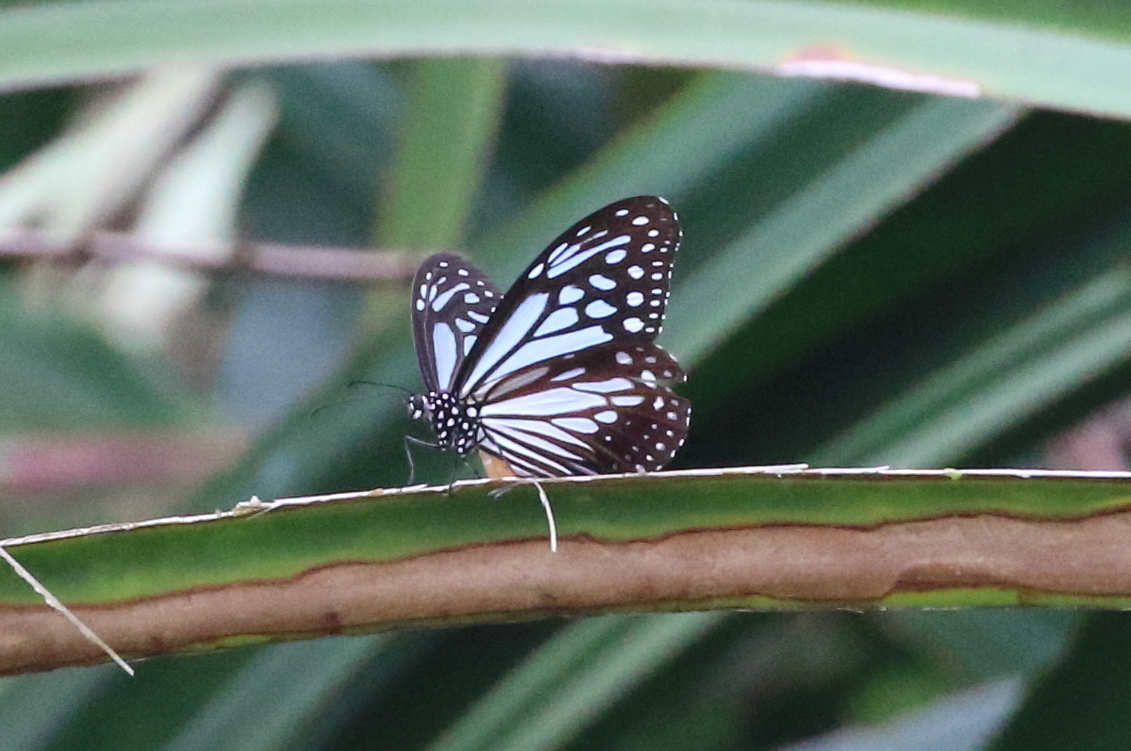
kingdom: Animalia
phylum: Arthropoda
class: Insecta
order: Lepidoptera
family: Nymphalidae
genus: Parantica
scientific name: Parantica melaneus
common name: Chocolate tiger
